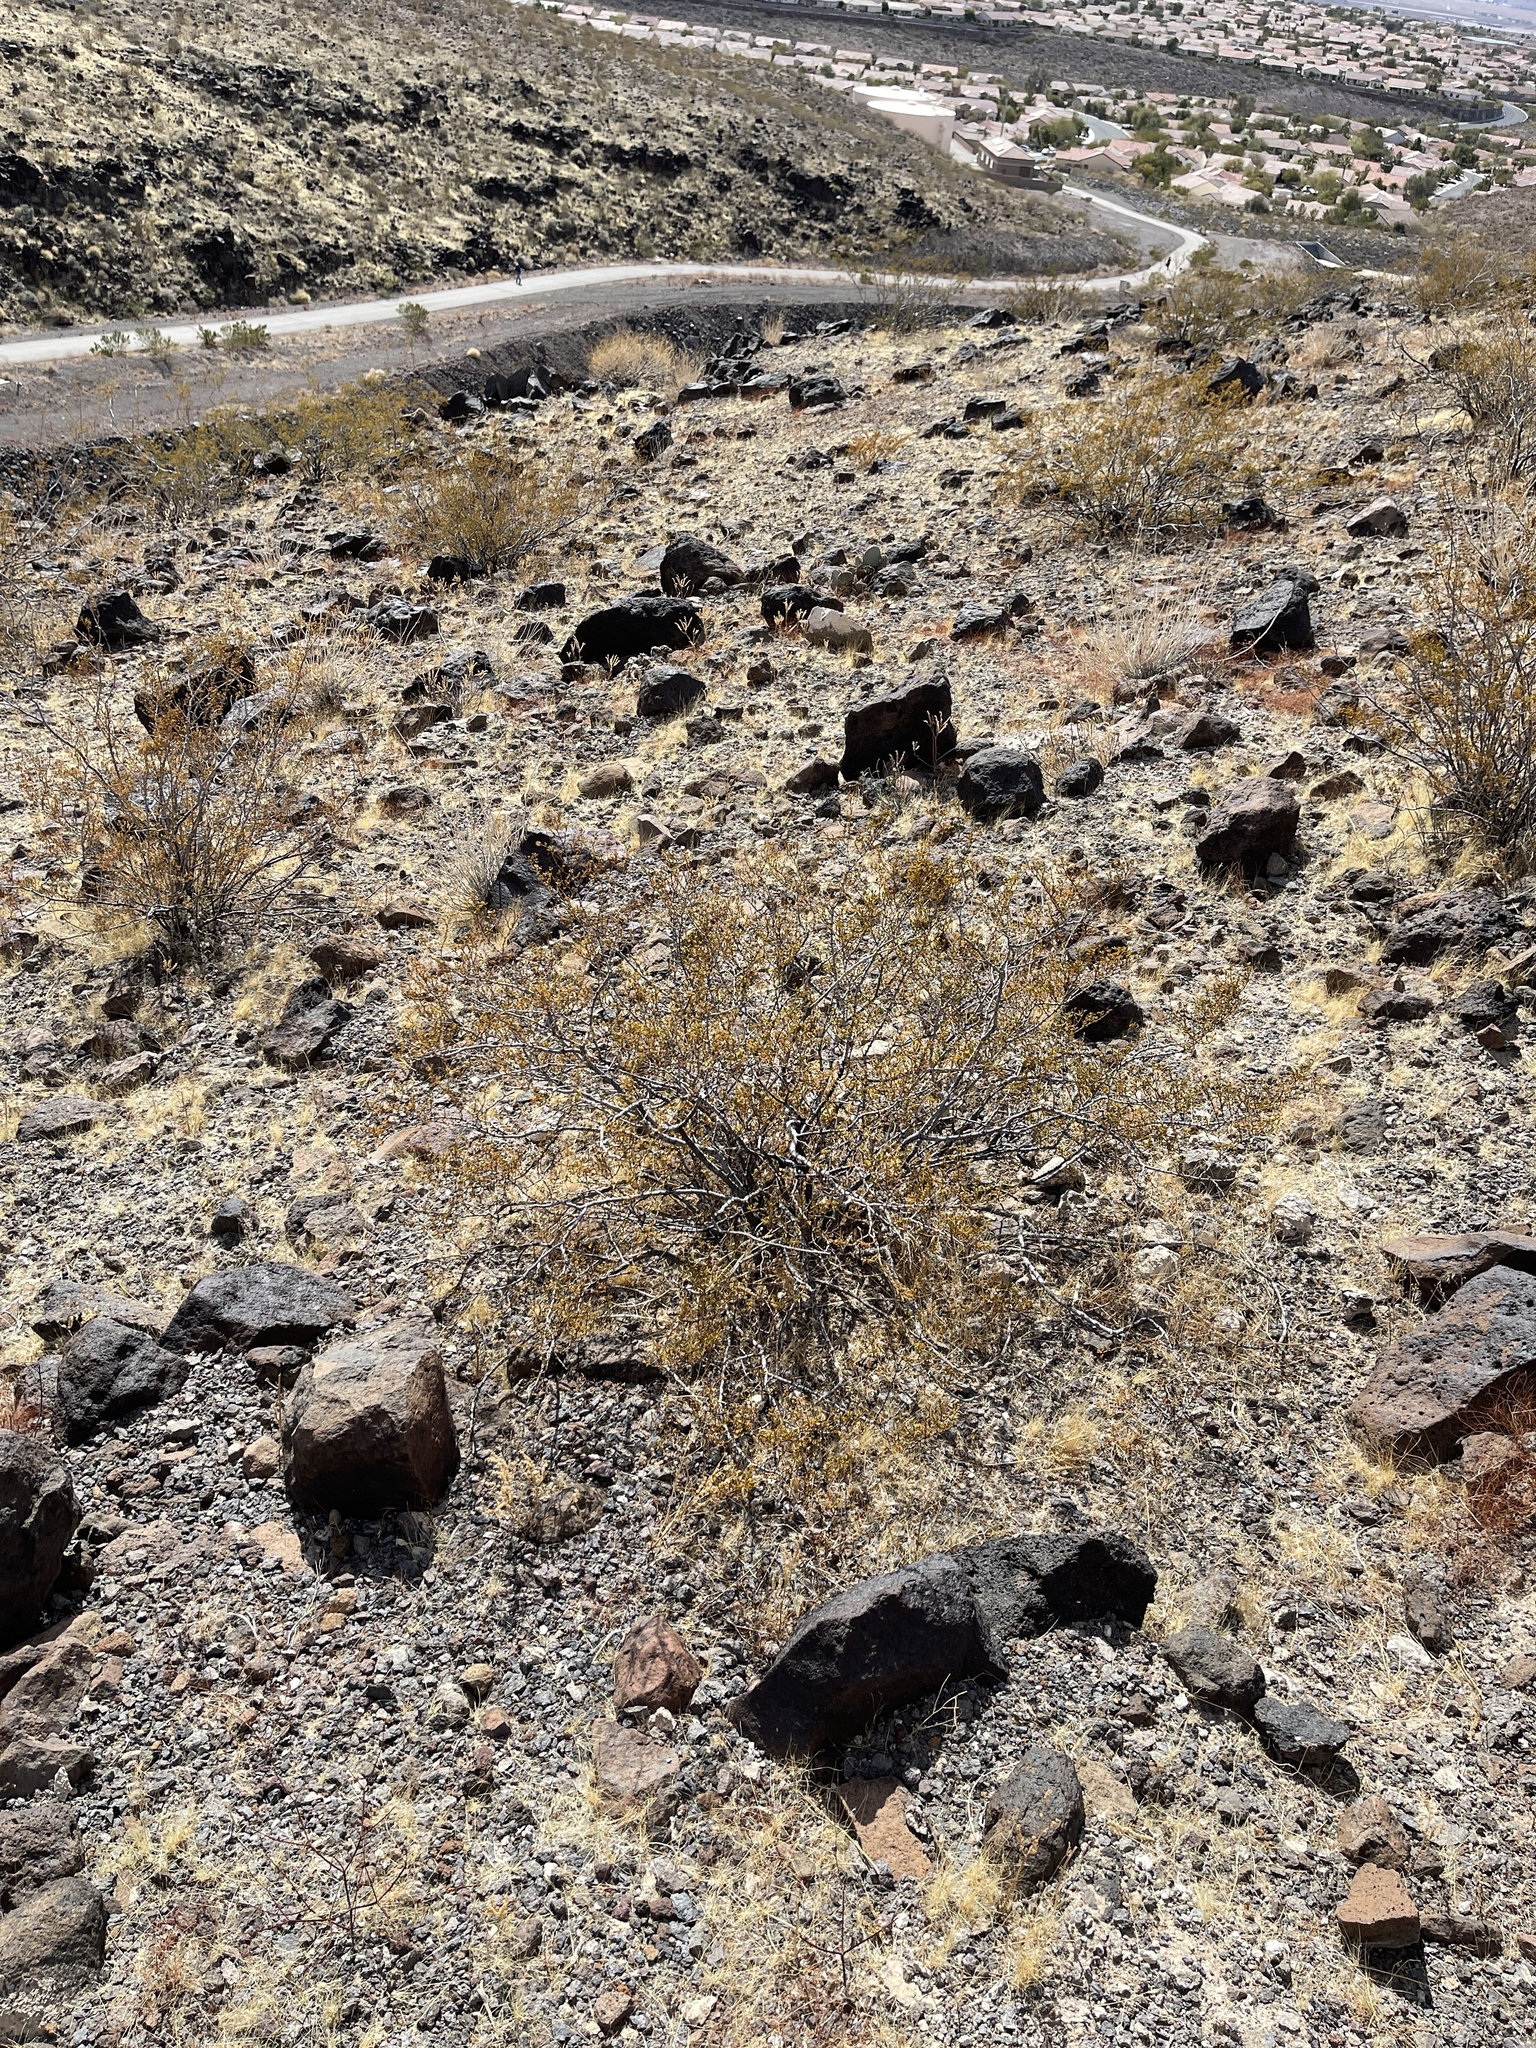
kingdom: Plantae
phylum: Tracheophyta
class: Magnoliopsida
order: Zygophyllales
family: Zygophyllaceae
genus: Larrea
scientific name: Larrea tridentata
